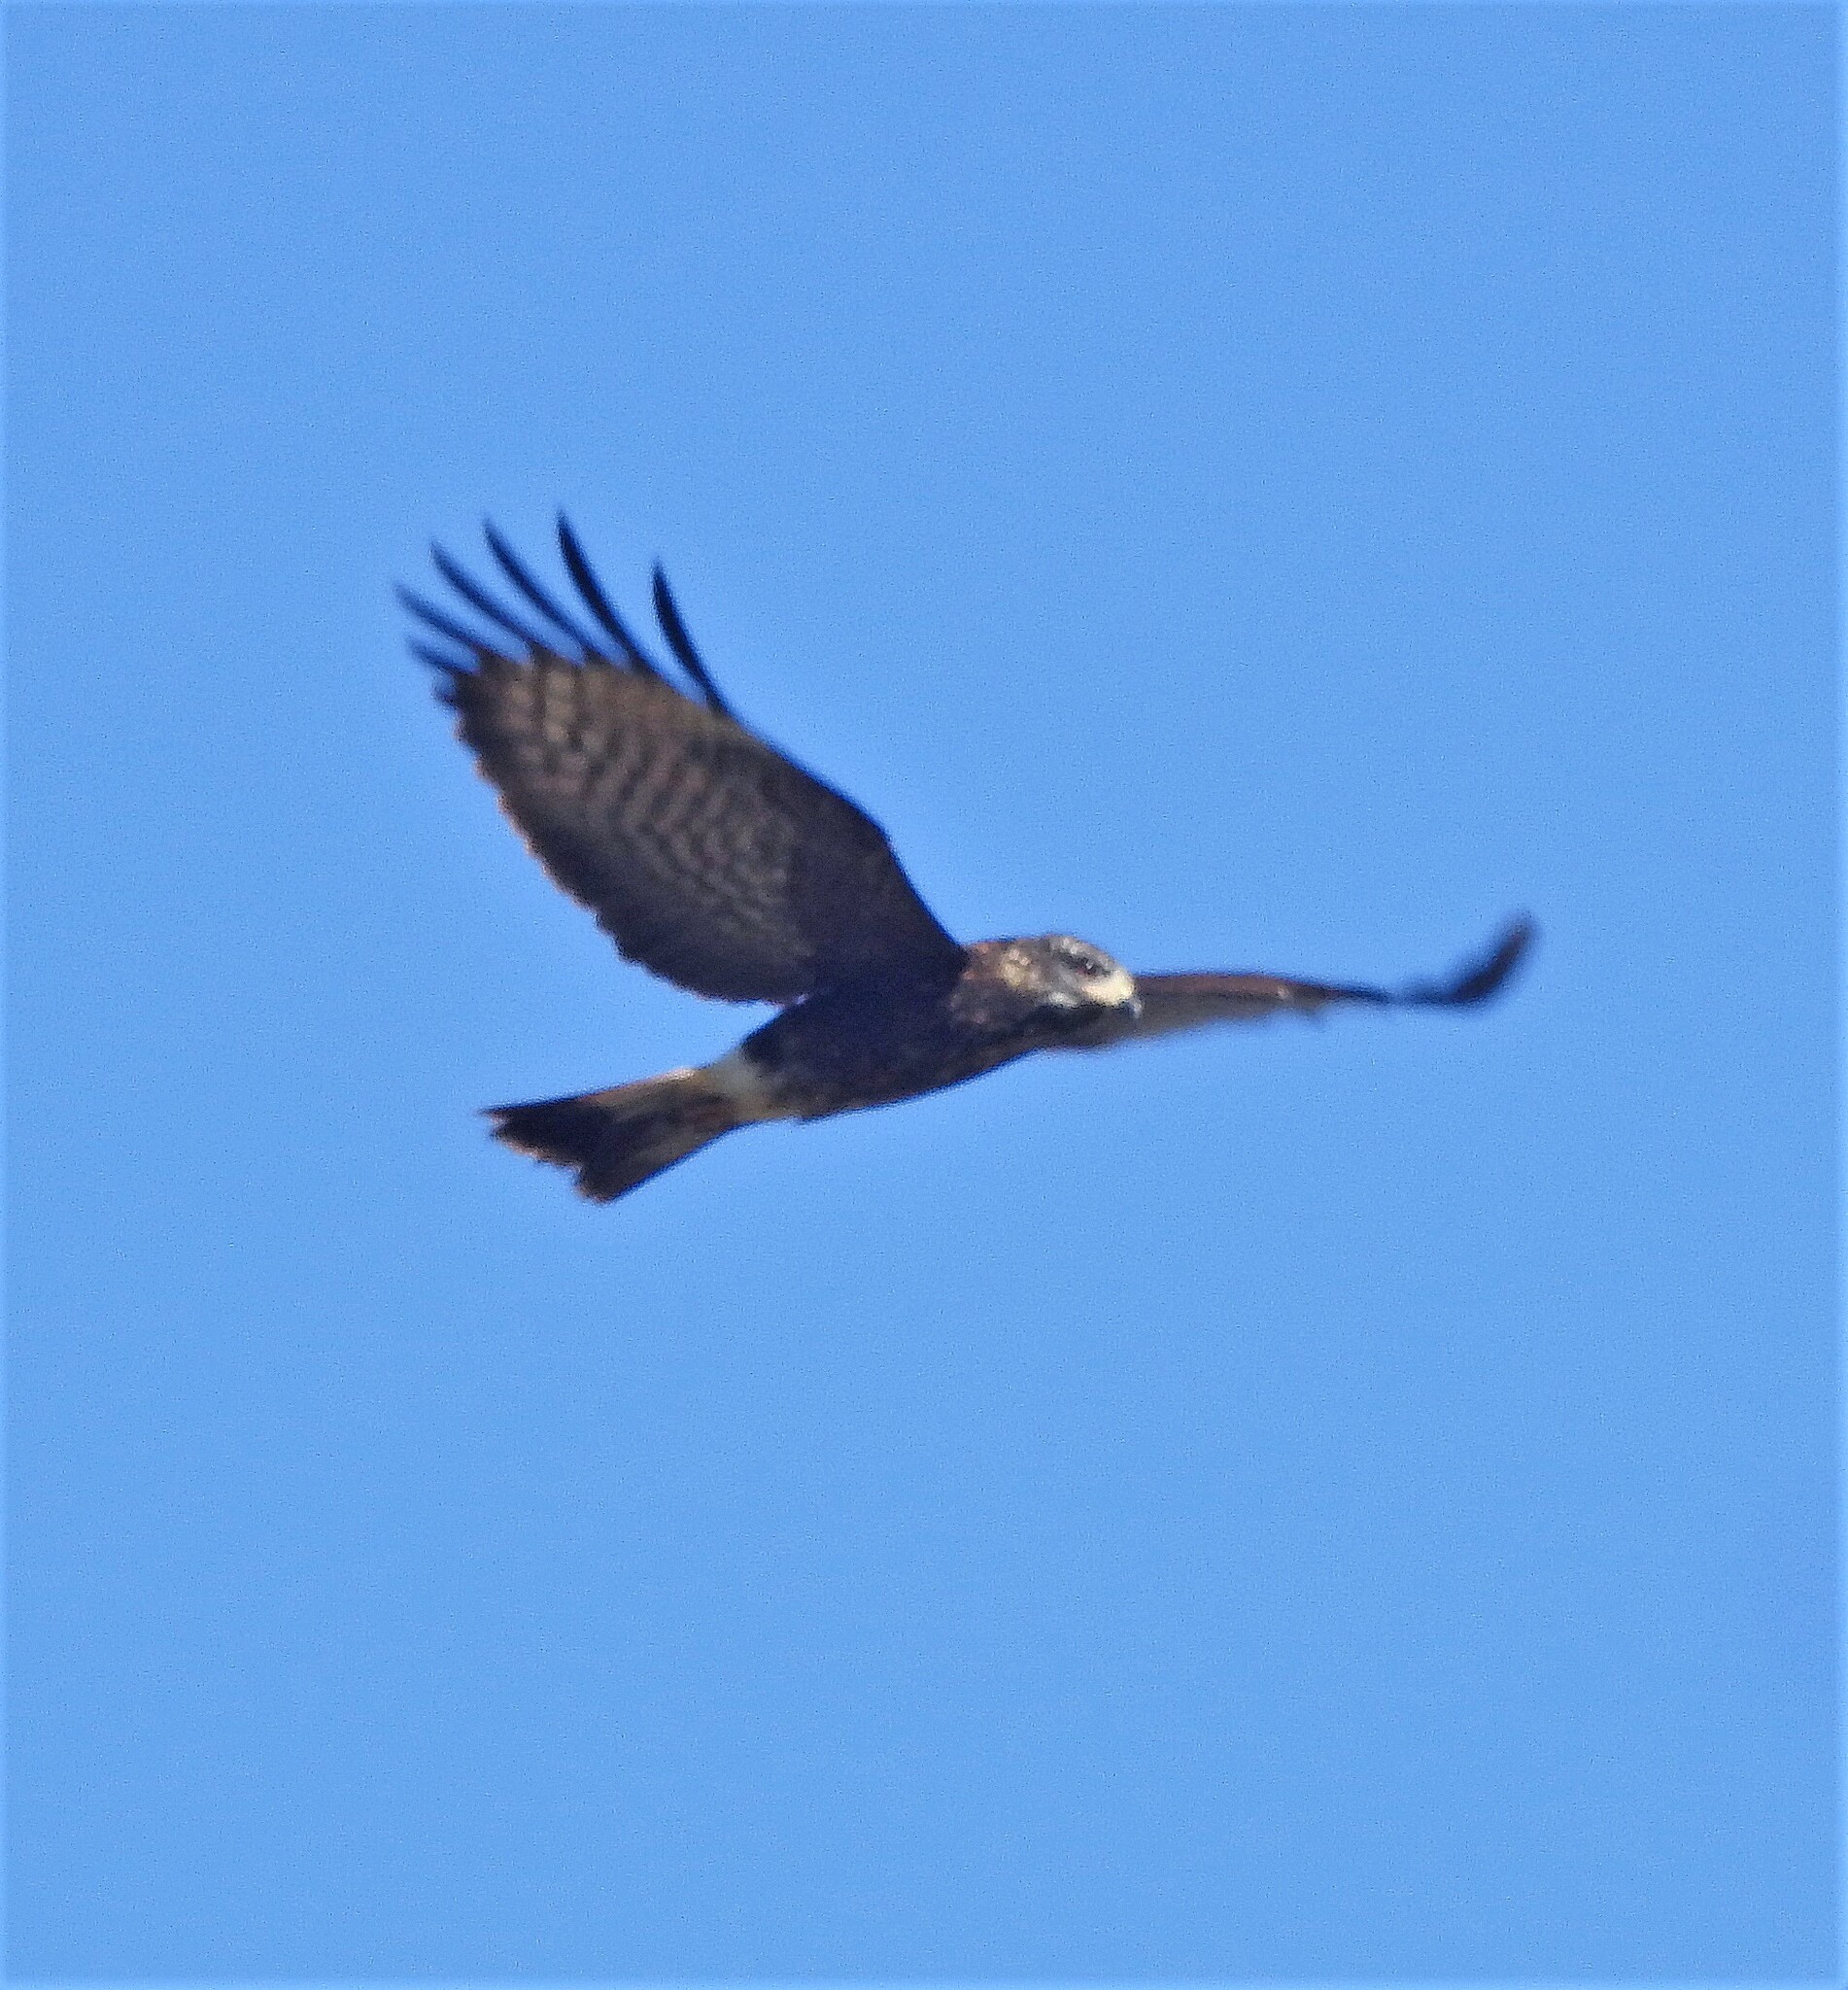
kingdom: Animalia
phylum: Chordata
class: Aves
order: Accipitriformes
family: Accipitridae
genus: Rostrhamus
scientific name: Rostrhamus sociabilis
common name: Snail kite
